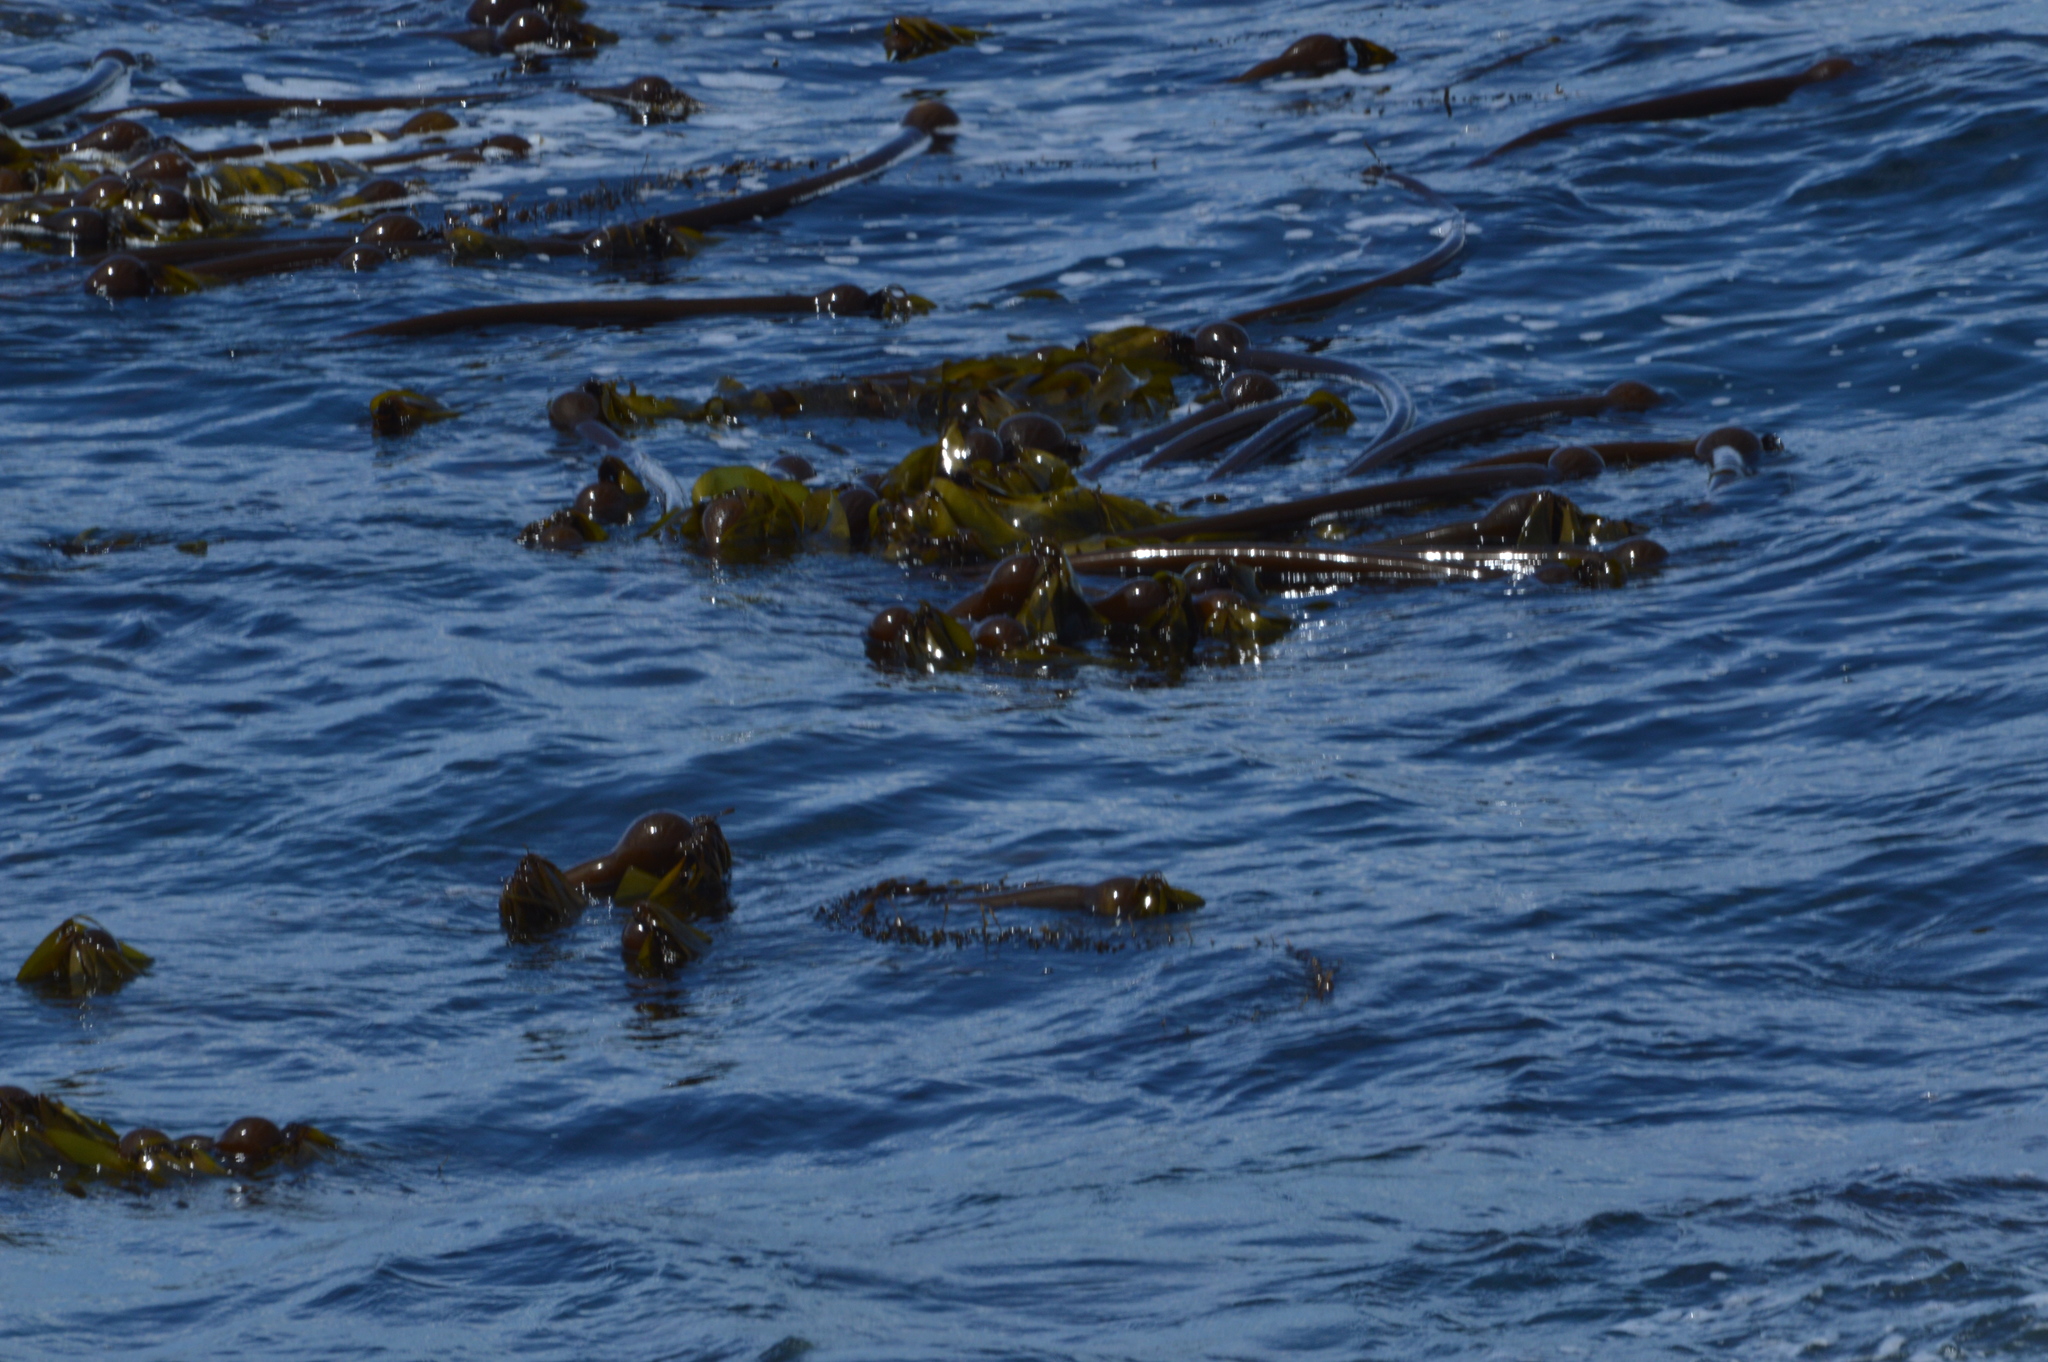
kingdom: Chromista
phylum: Ochrophyta
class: Phaeophyceae
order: Laminariales
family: Laminariaceae
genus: Nereocystis
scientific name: Nereocystis luetkeana
